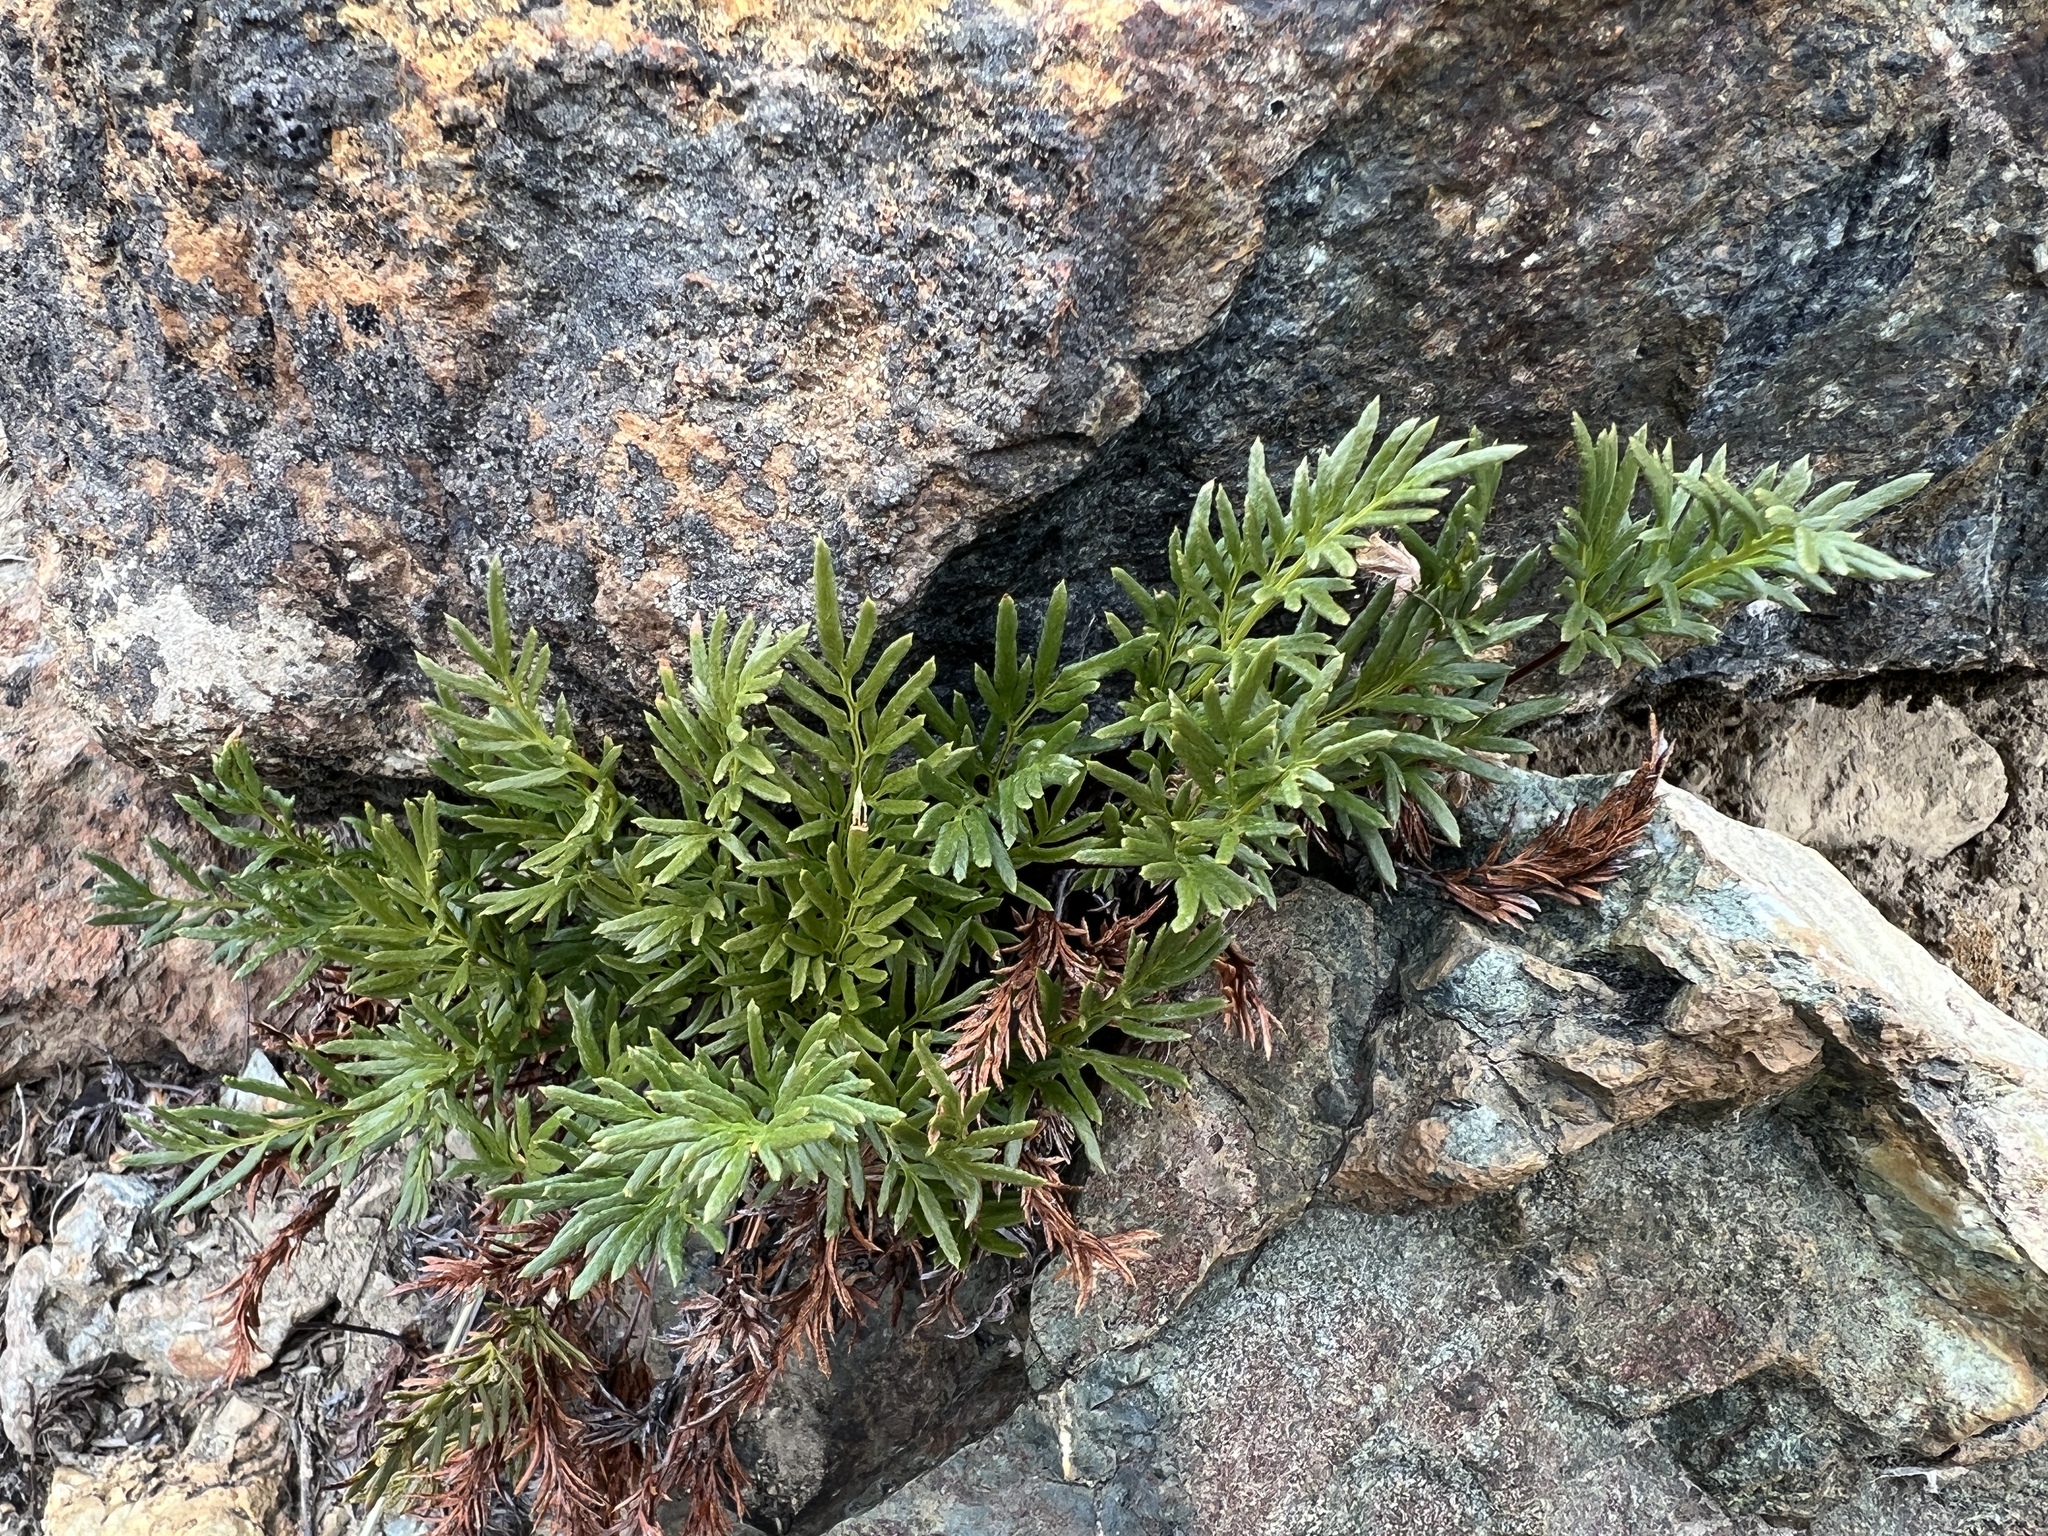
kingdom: Plantae
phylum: Tracheophyta
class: Polypodiopsida
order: Polypodiales
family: Pteridaceae
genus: Aspidotis
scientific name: Aspidotis densa
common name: Indian's dream
